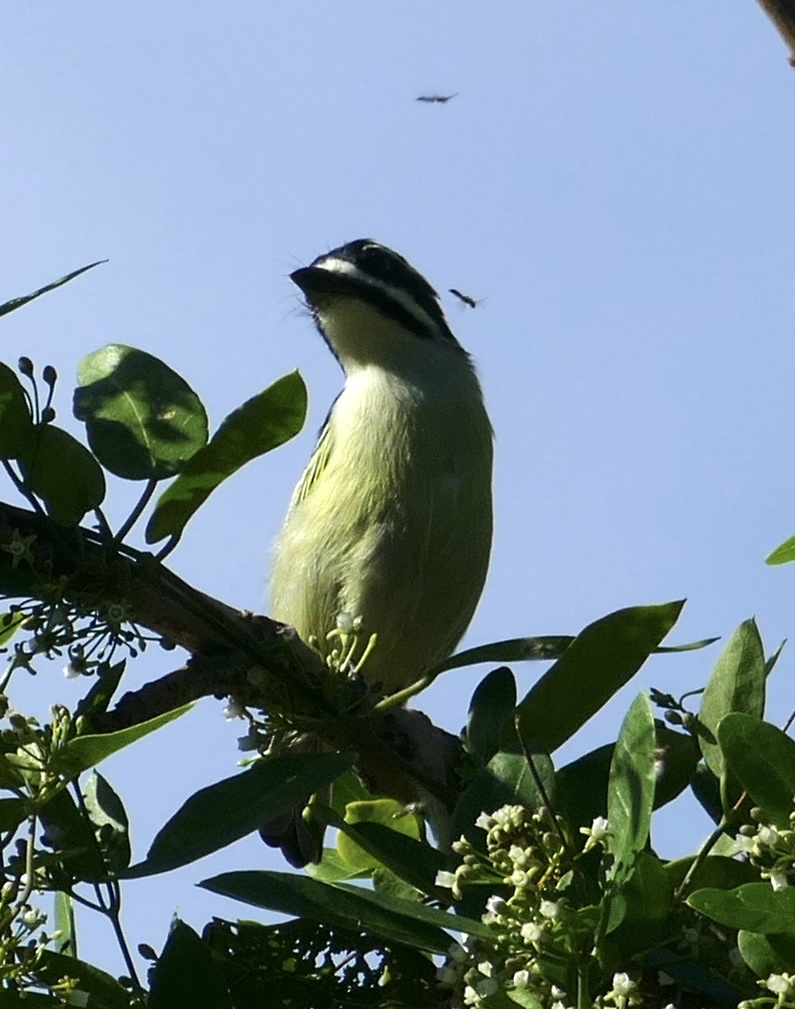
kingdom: Animalia
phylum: Chordata
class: Aves
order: Piciformes
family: Lybiidae
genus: Pogoniulus
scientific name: Pogoniulus bilineatus
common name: Yellow-rumped tinkerbird
